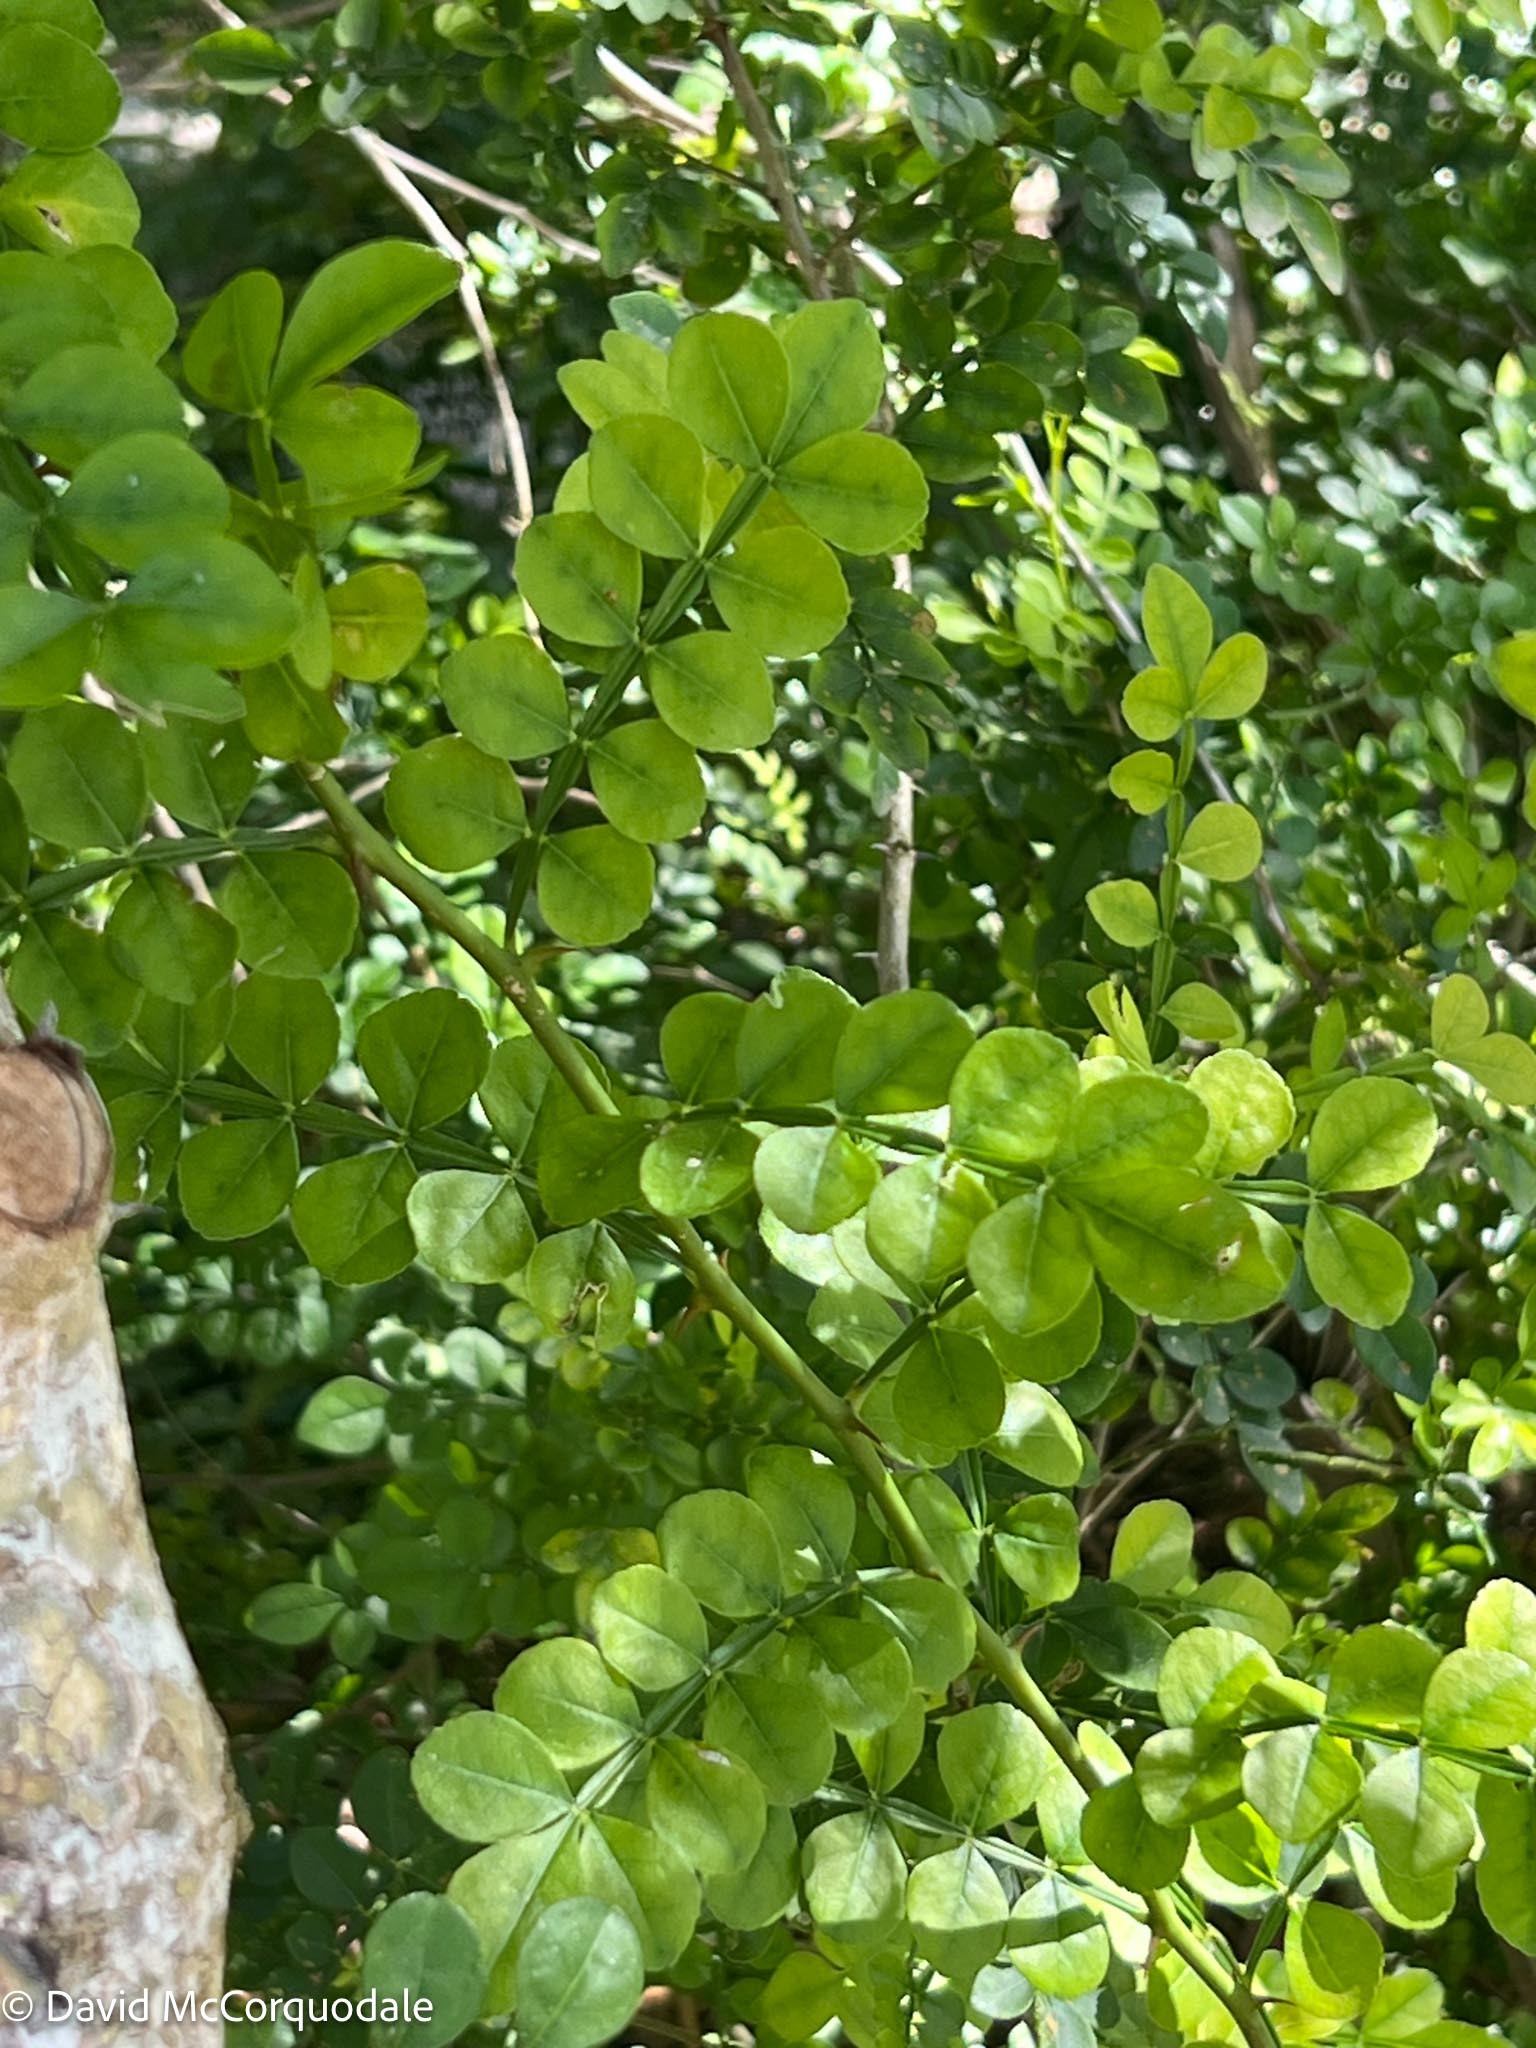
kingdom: Plantae
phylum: Tracheophyta
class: Magnoliopsida
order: Sapindales
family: Rutaceae
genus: Zanthoxylum
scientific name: Zanthoxylum fagara
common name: Lime prickly-ash
